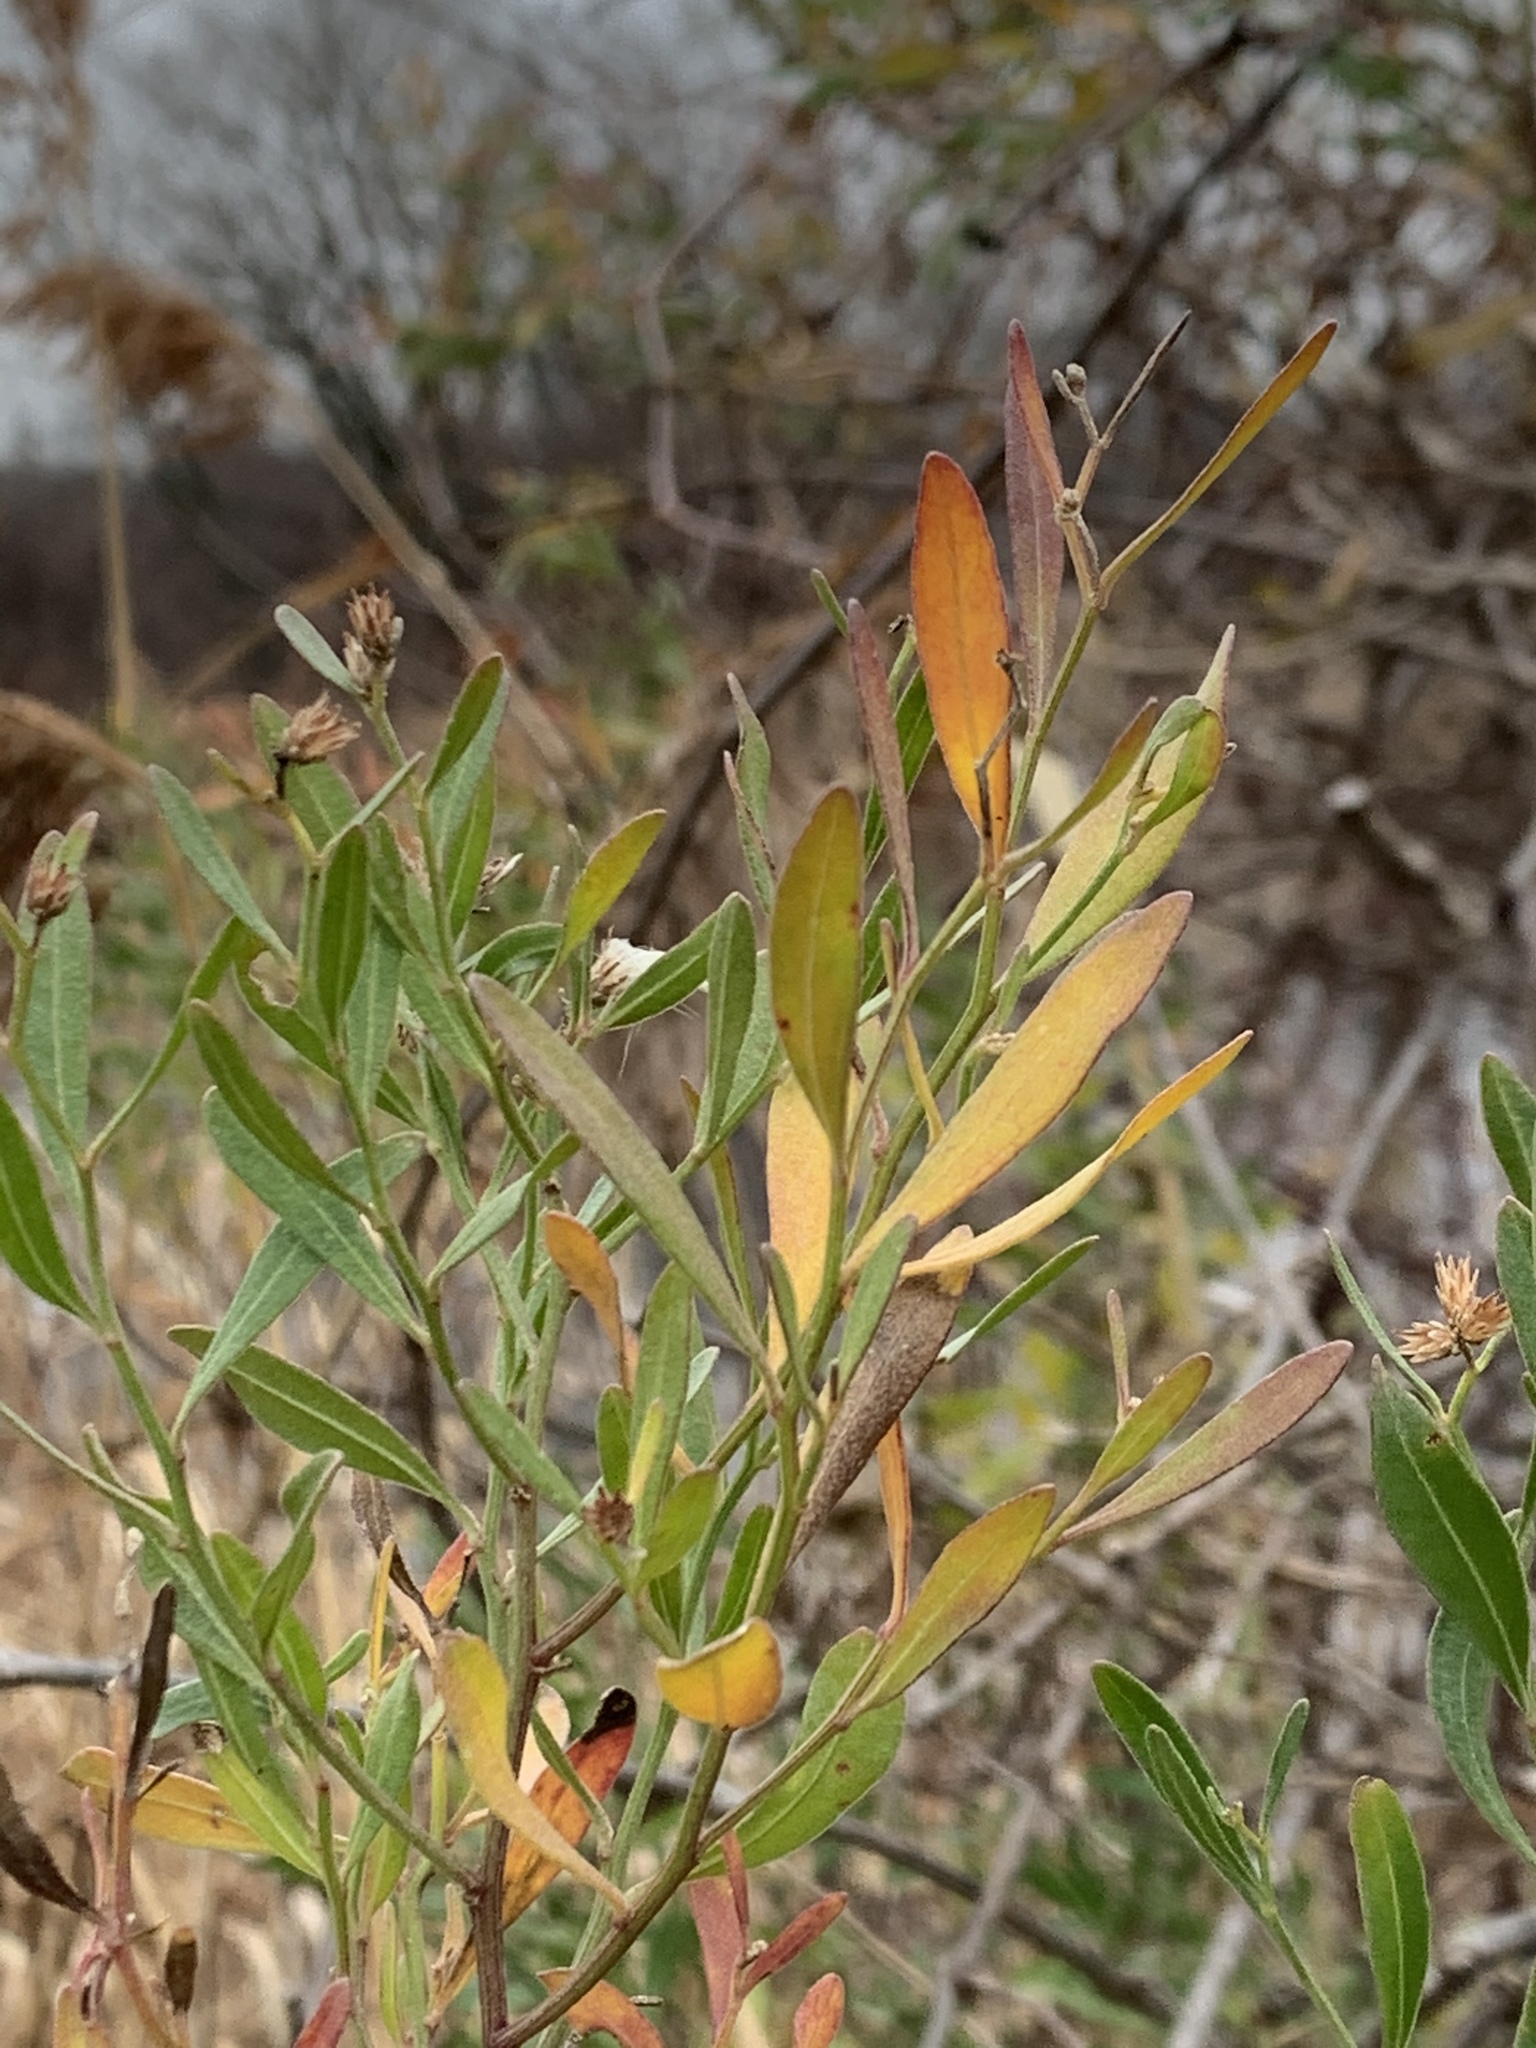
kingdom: Plantae
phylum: Tracheophyta
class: Magnoliopsida
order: Asterales
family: Asteraceae
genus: Baccharis
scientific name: Baccharis halimifolia
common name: Eastern baccharis
